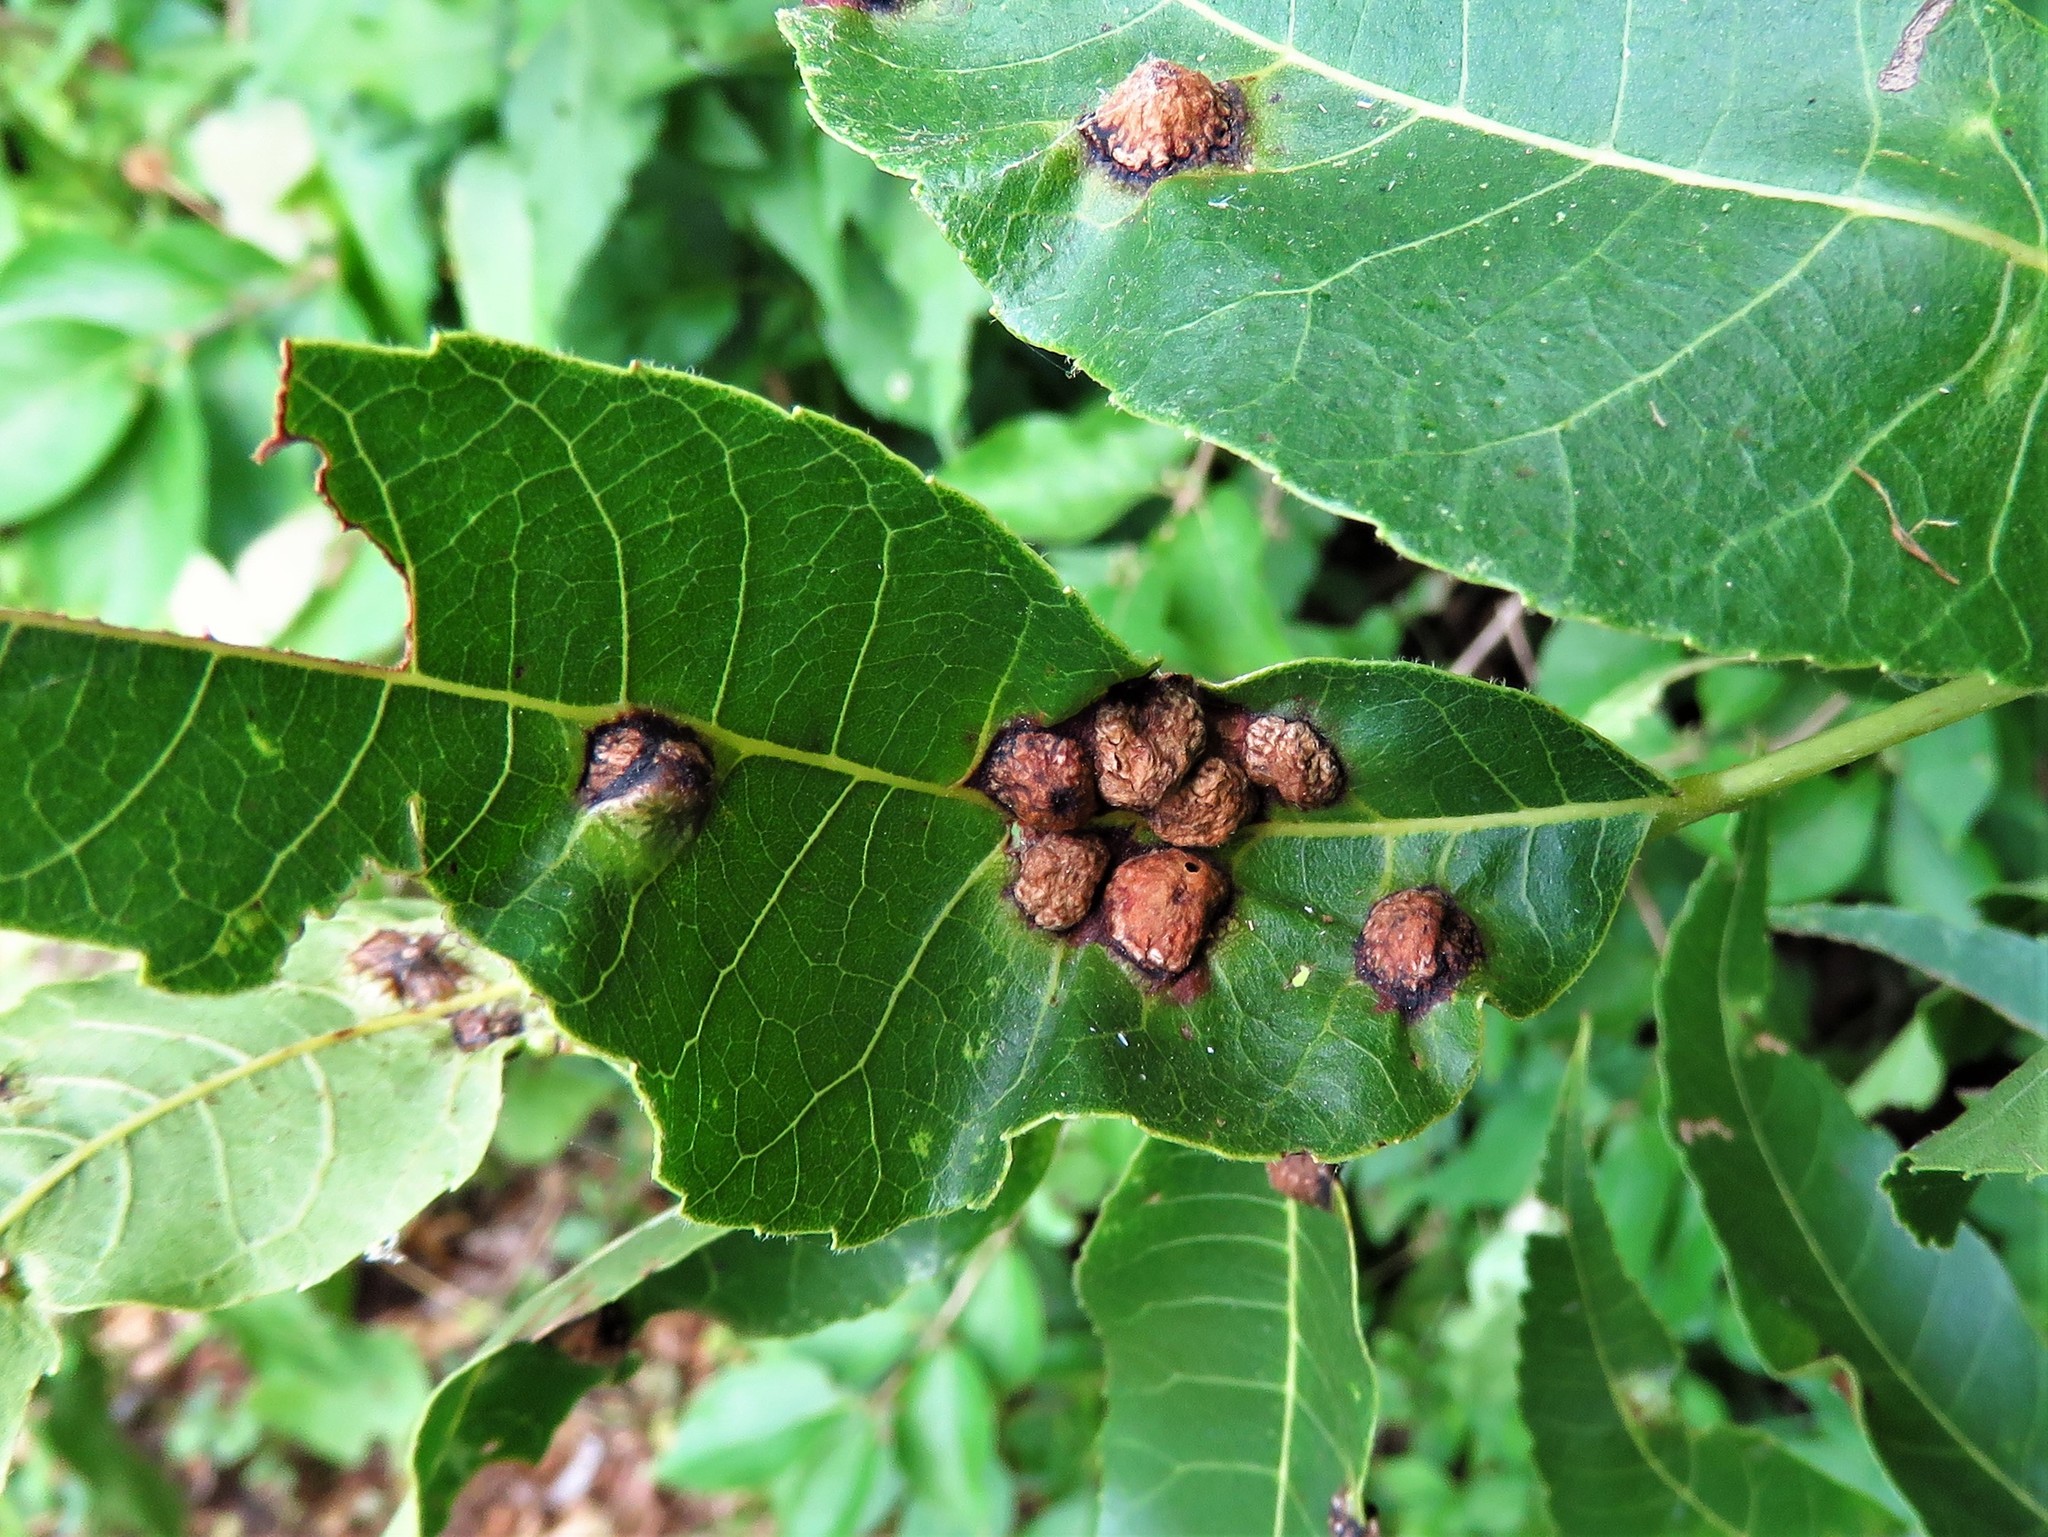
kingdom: Animalia
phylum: Arthropoda
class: Insecta
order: Hemiptera
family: Phylloxeridae
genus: Daktulosphaira
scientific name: Daktulosphaira notabilis
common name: Pecan leaf phylloxera
